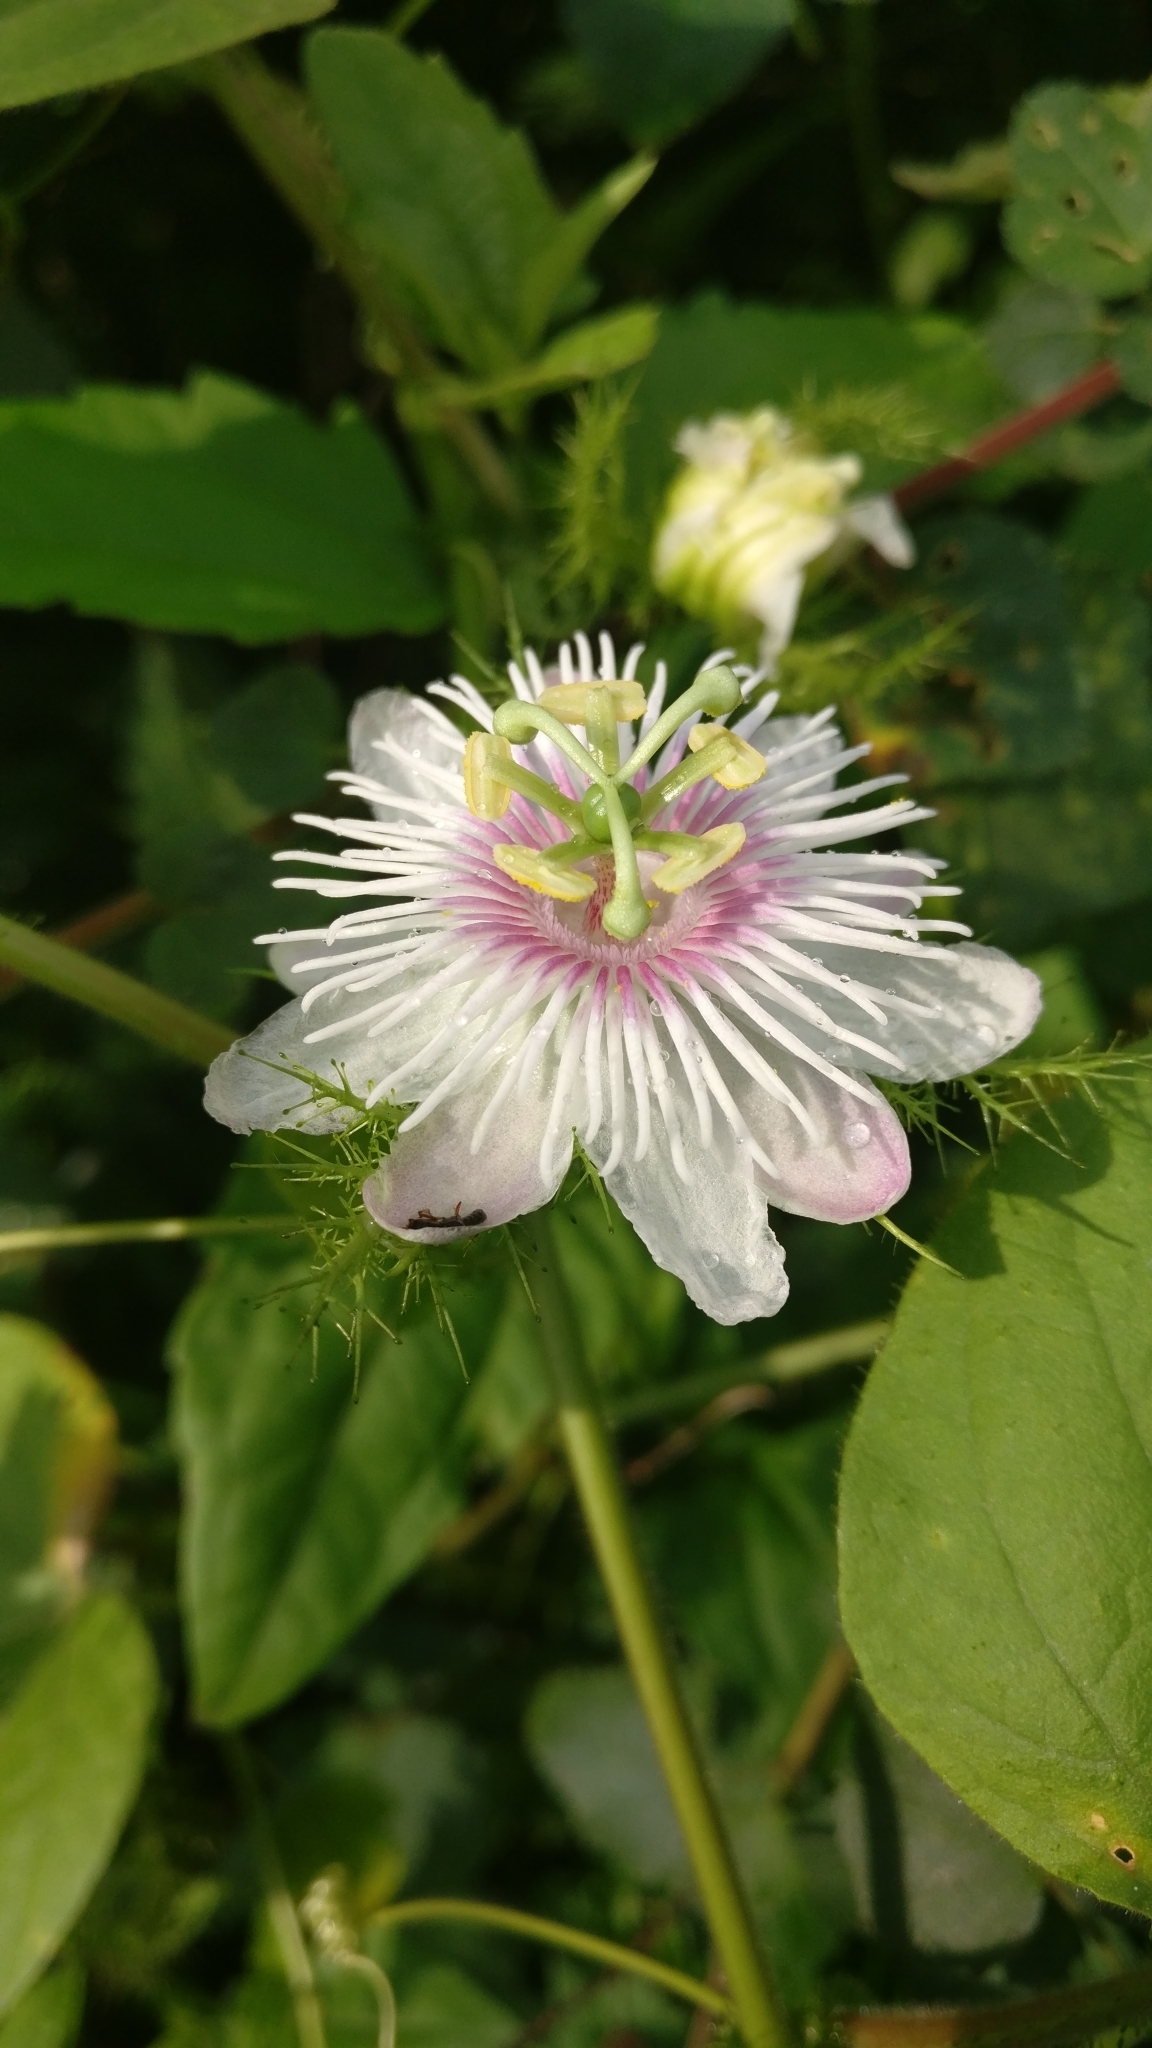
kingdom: Plantae
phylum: Tracheophyta
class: Magnoliopsida
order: Malpighiales
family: Passifloraceae
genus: Passiflora
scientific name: Passiflora foetida
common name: Fetid passionflower
